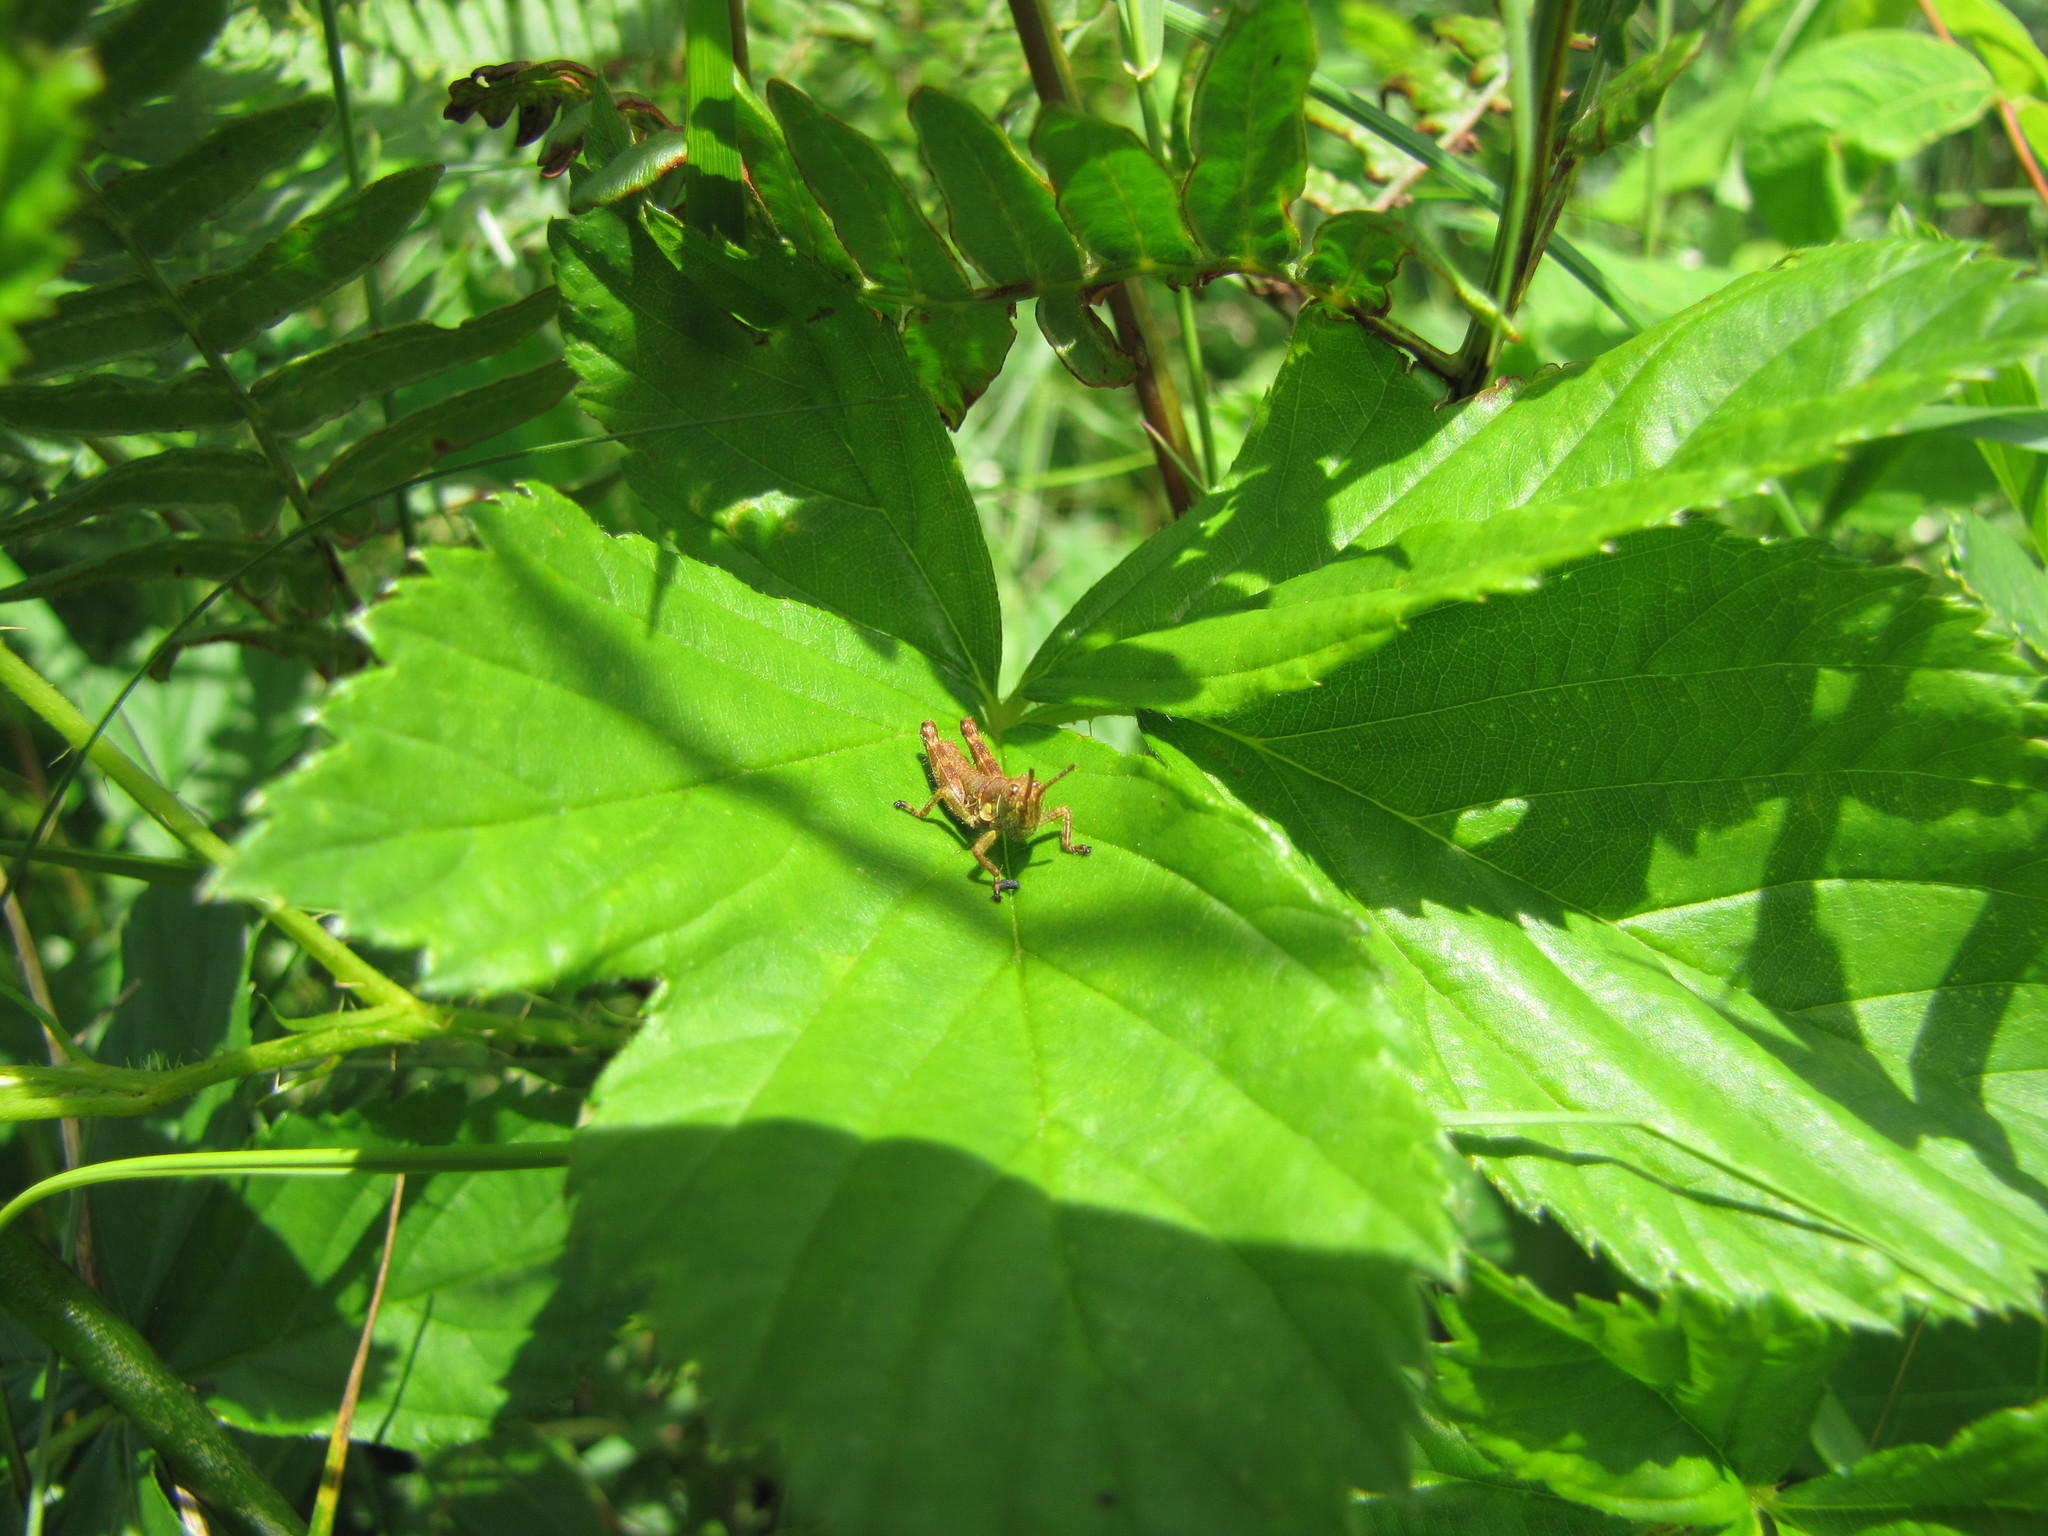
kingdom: Animalia
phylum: Arthropoda
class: Insecta
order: Orthoptera
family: Acrididae
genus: Booneacris
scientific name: Booneacris glacialis
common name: Wingless mountain grasshopper
